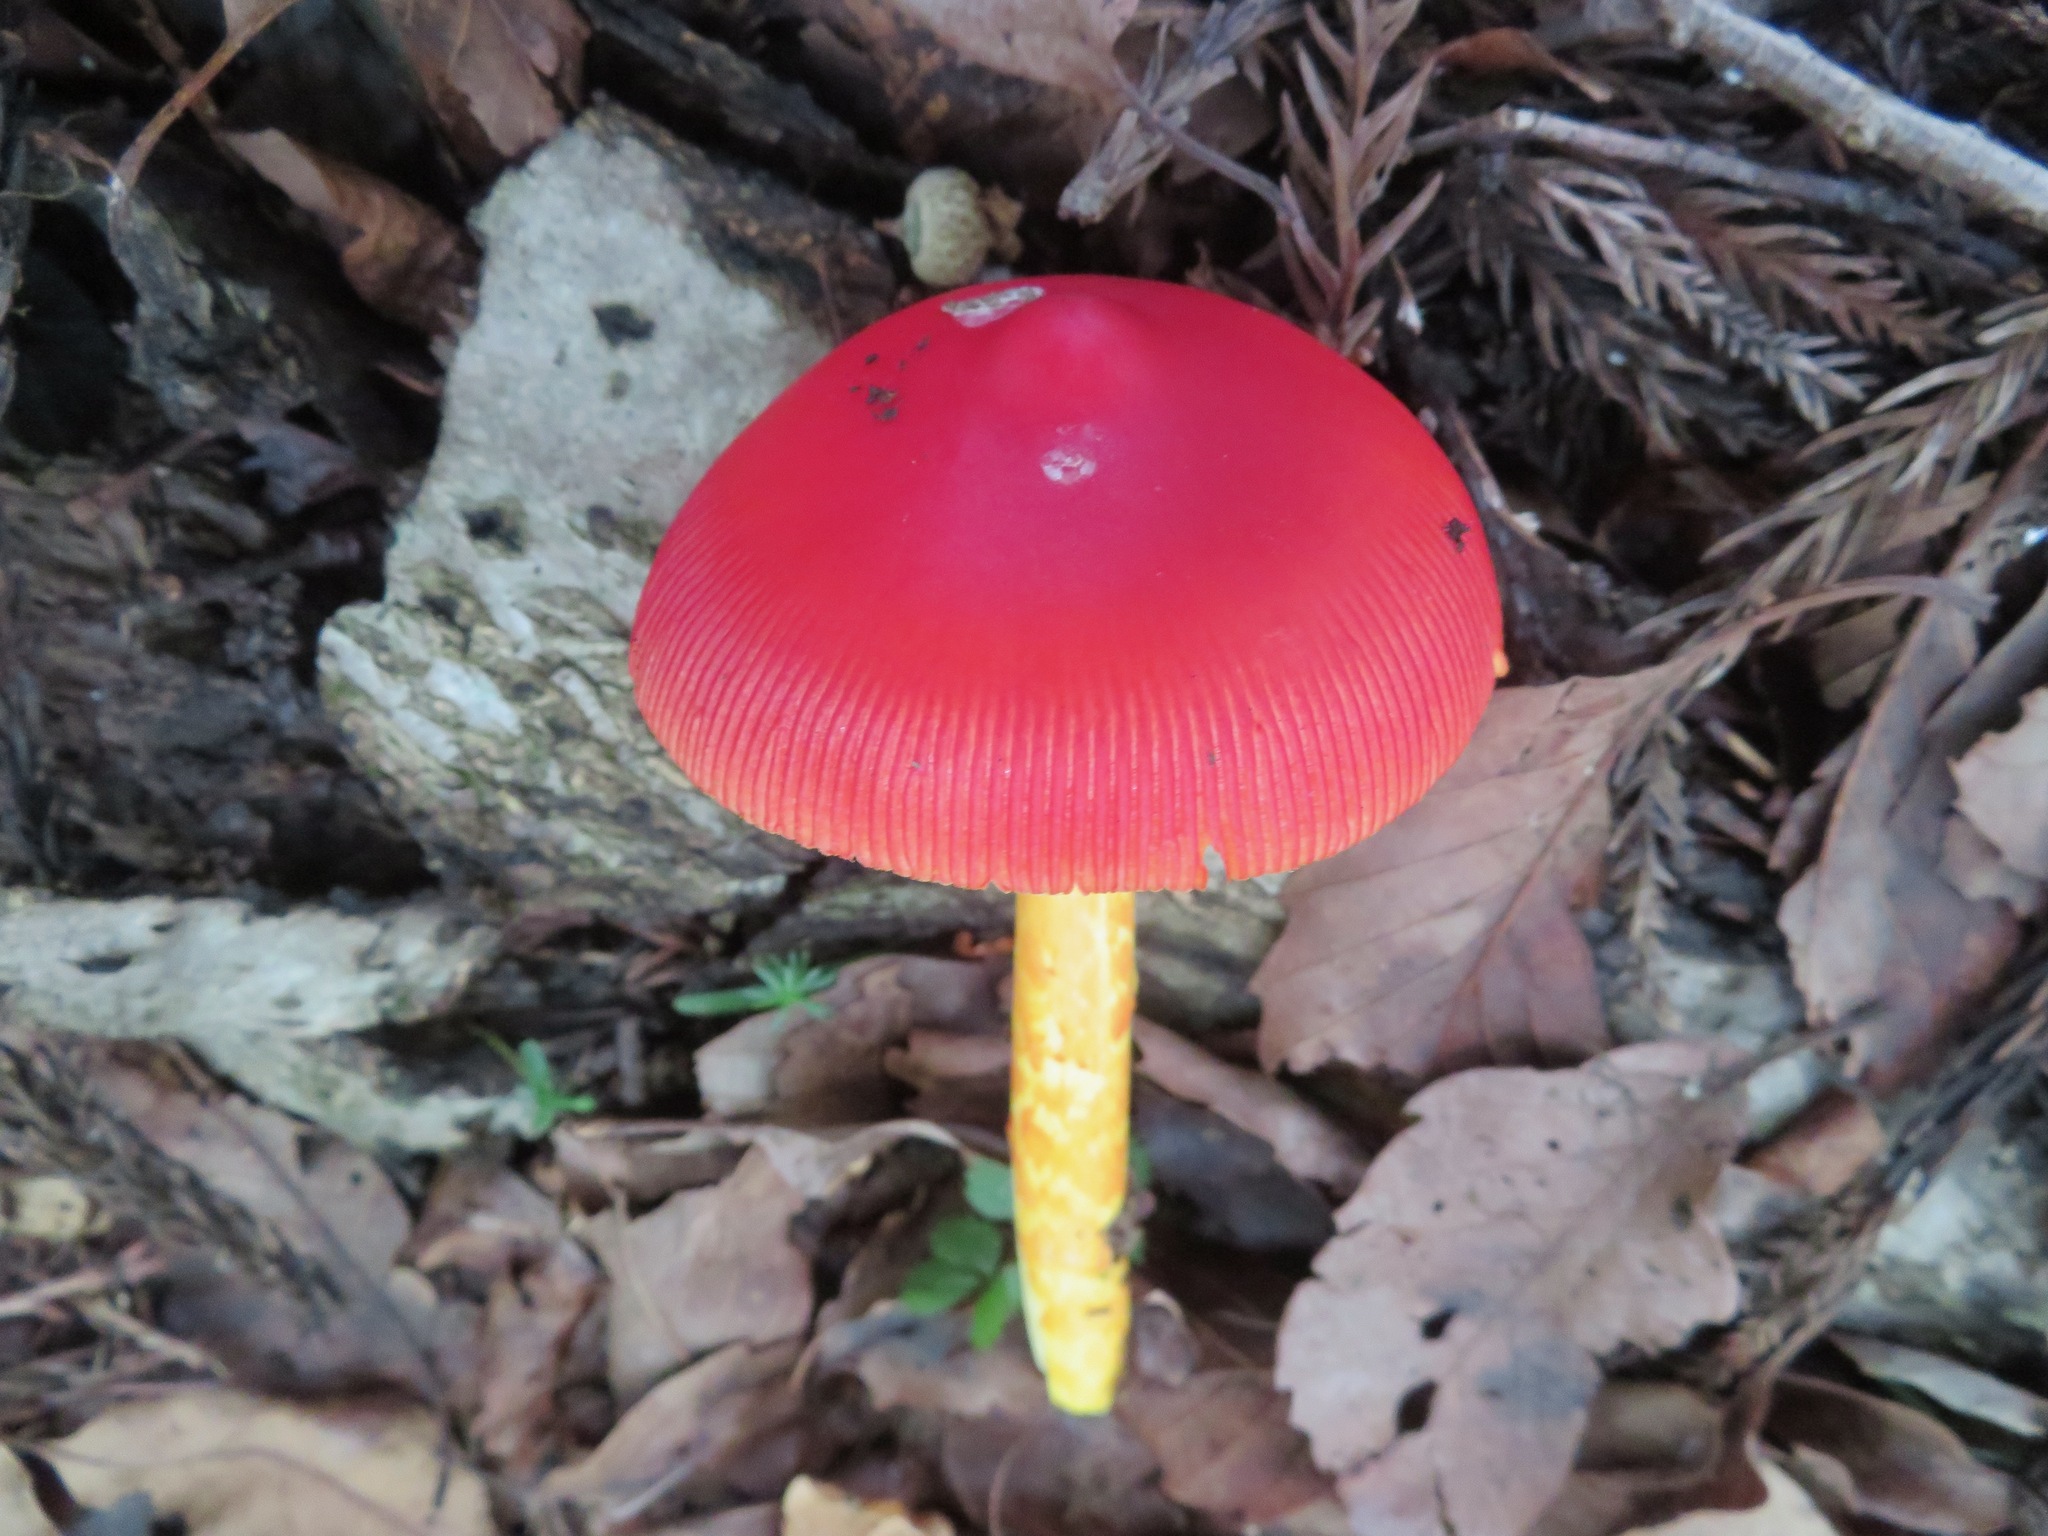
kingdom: Fungi
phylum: Basidiomycota
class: Agaricomycetes
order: Agaricales
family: Amanitaceae
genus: Amanita
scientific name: Amanita caesareoides
